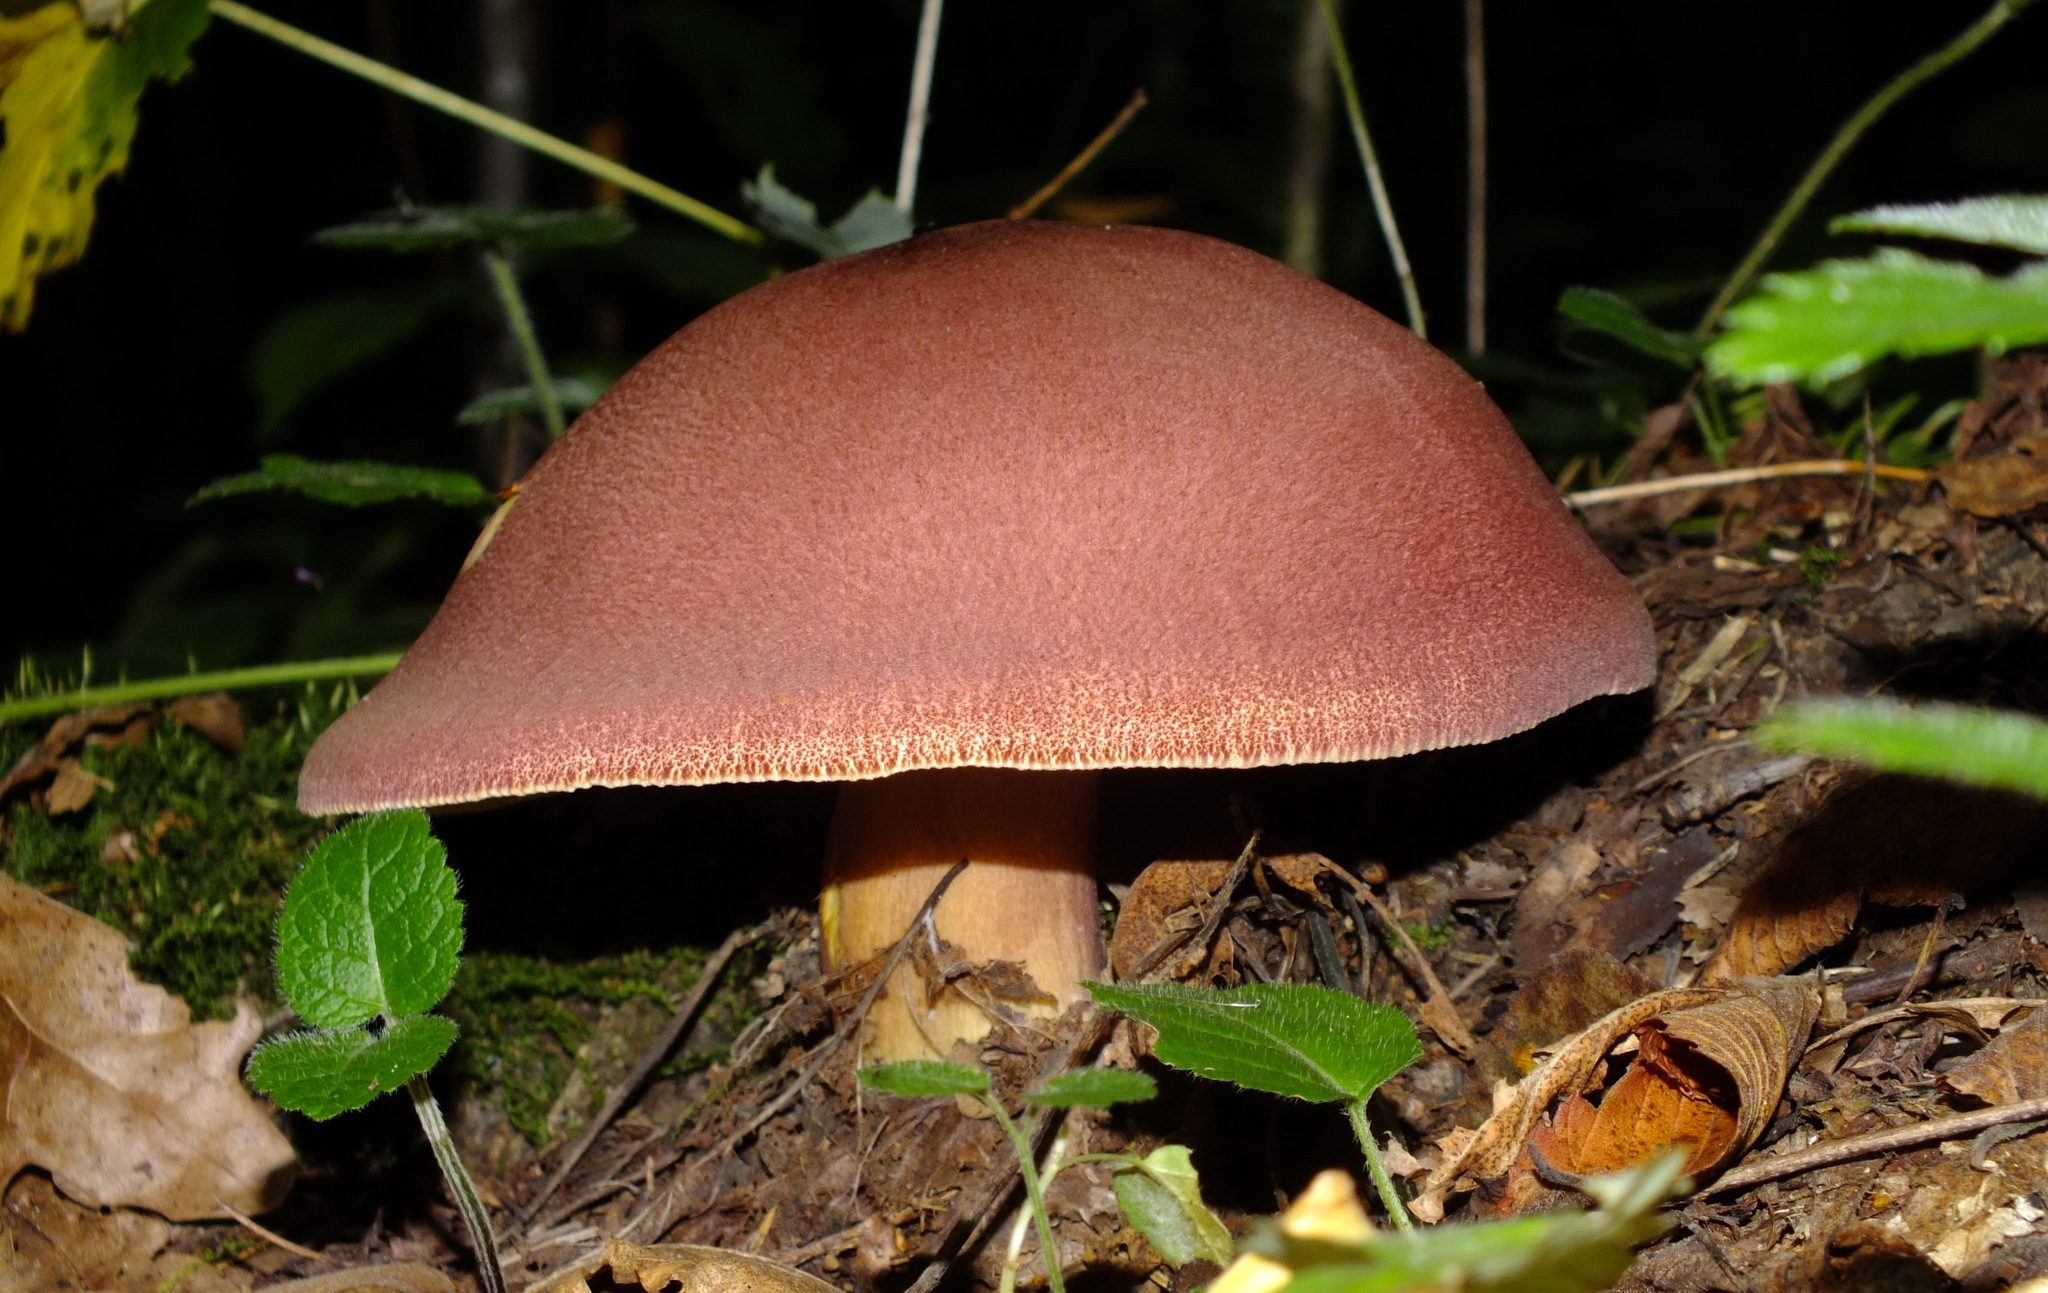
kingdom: Fungi
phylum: Basidiomycota
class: Agaricomycetes
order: Agaricales
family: Tricholomataceae
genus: Tricholomopsis
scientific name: Tricholomopsis rutilans
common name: Plums and custard
